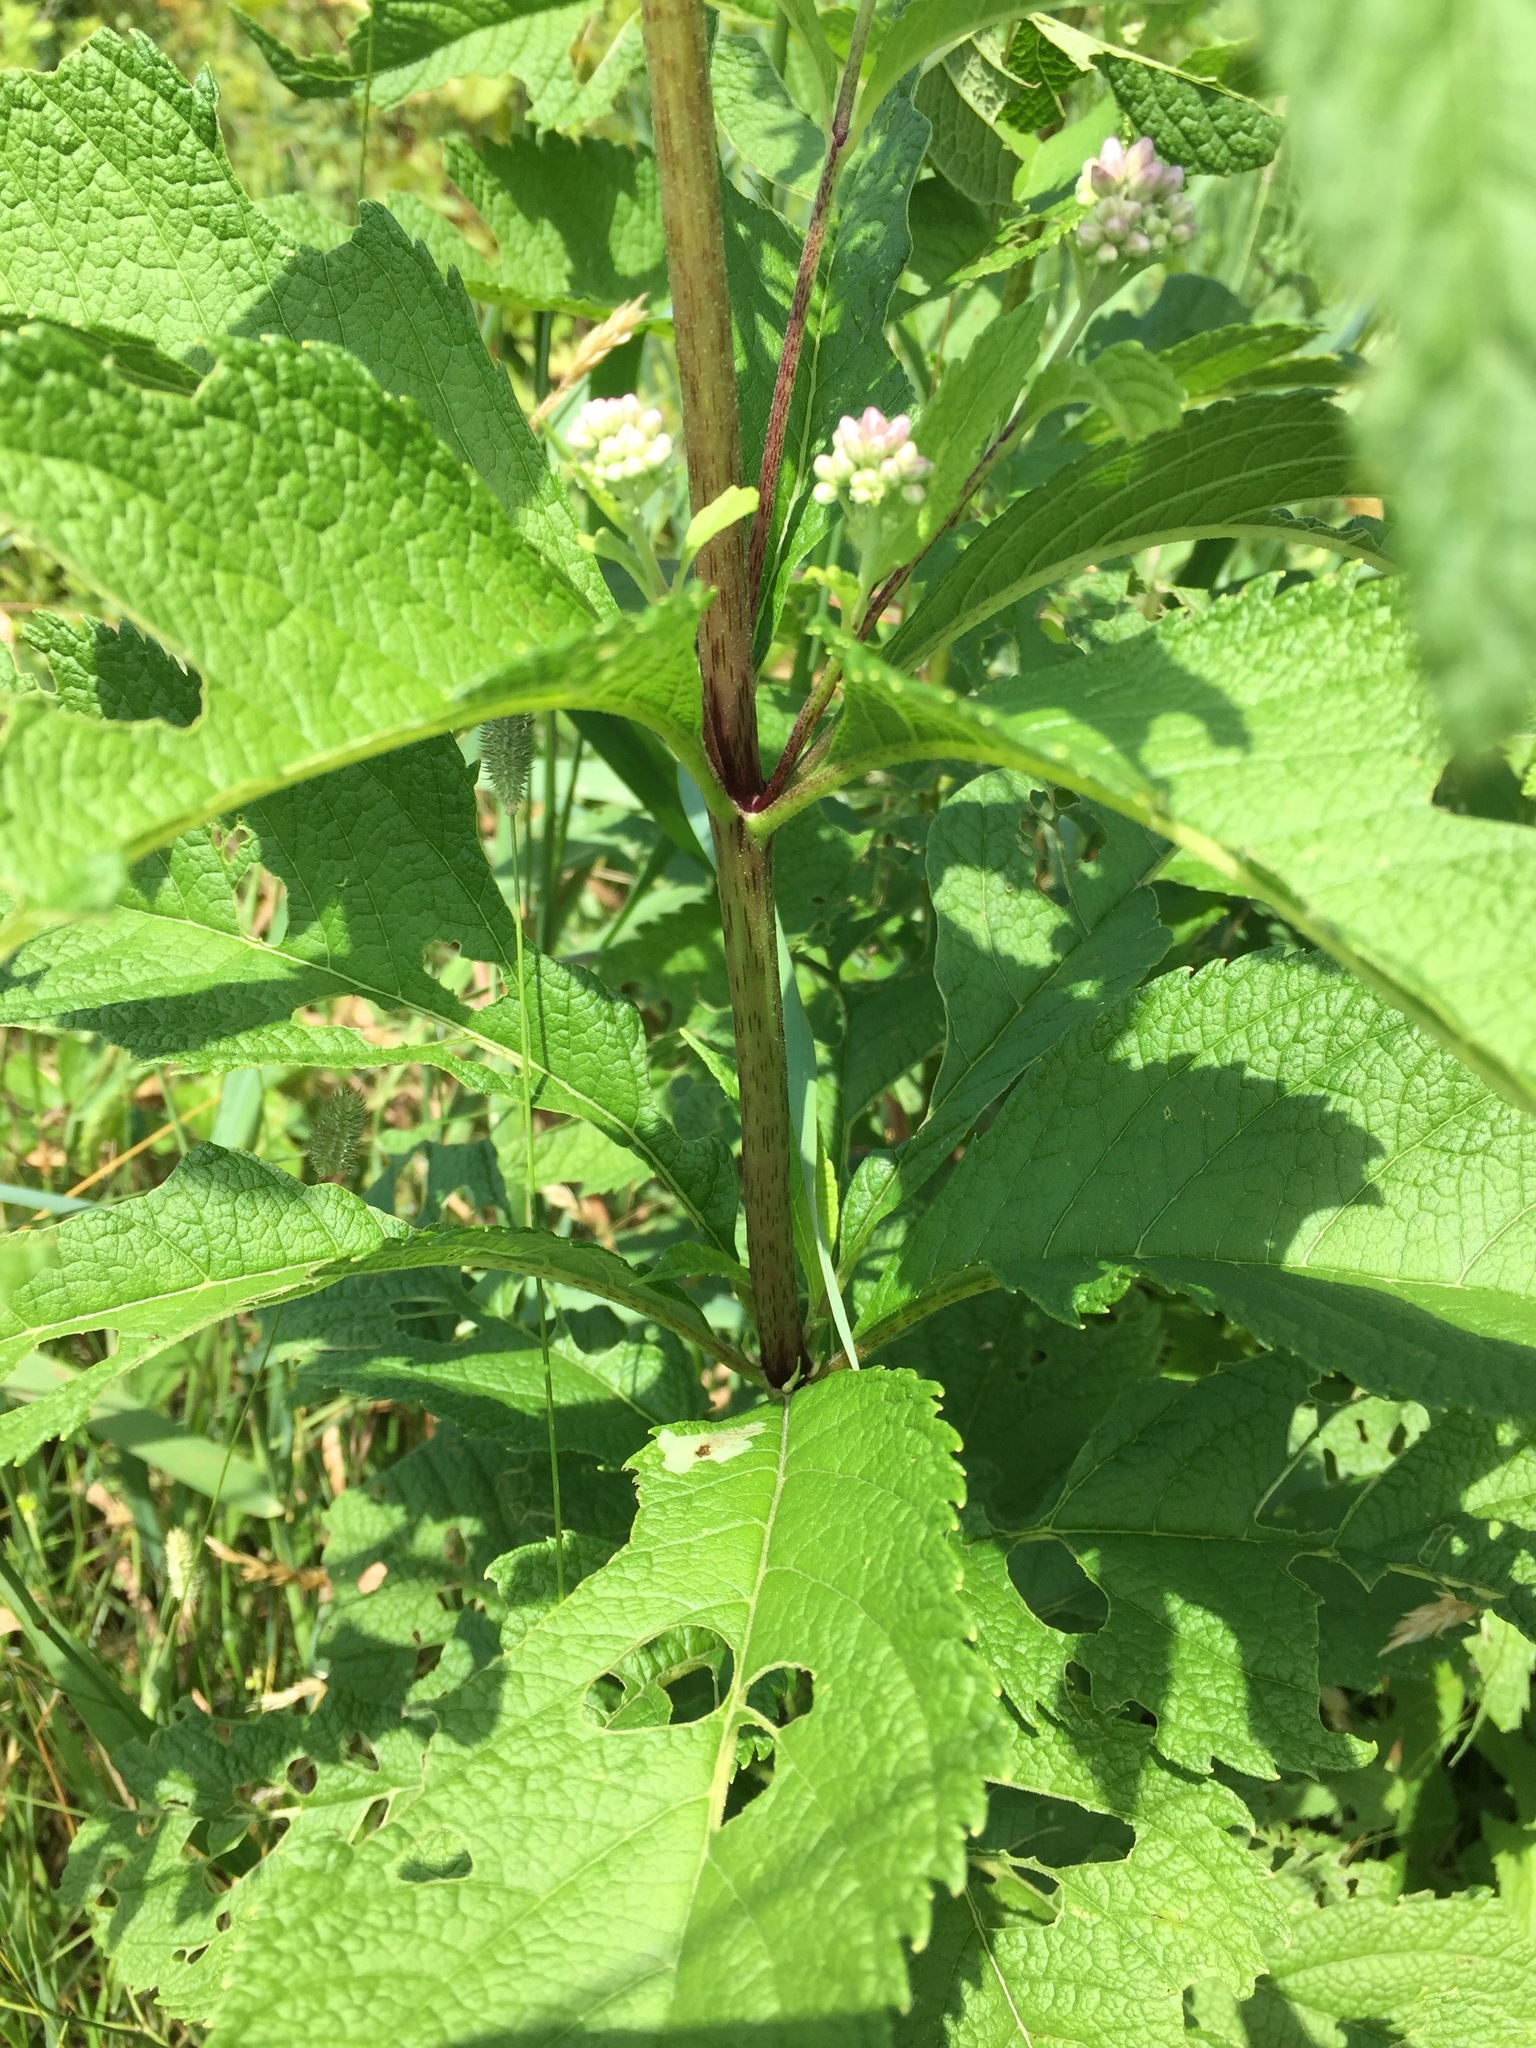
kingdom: Plantae
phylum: Tracheophyta
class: Magnoliopsida
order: Asterales
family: Asteraceae
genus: Eutrochium
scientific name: Eutrochium maculatum
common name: Spotted joe pye weed
